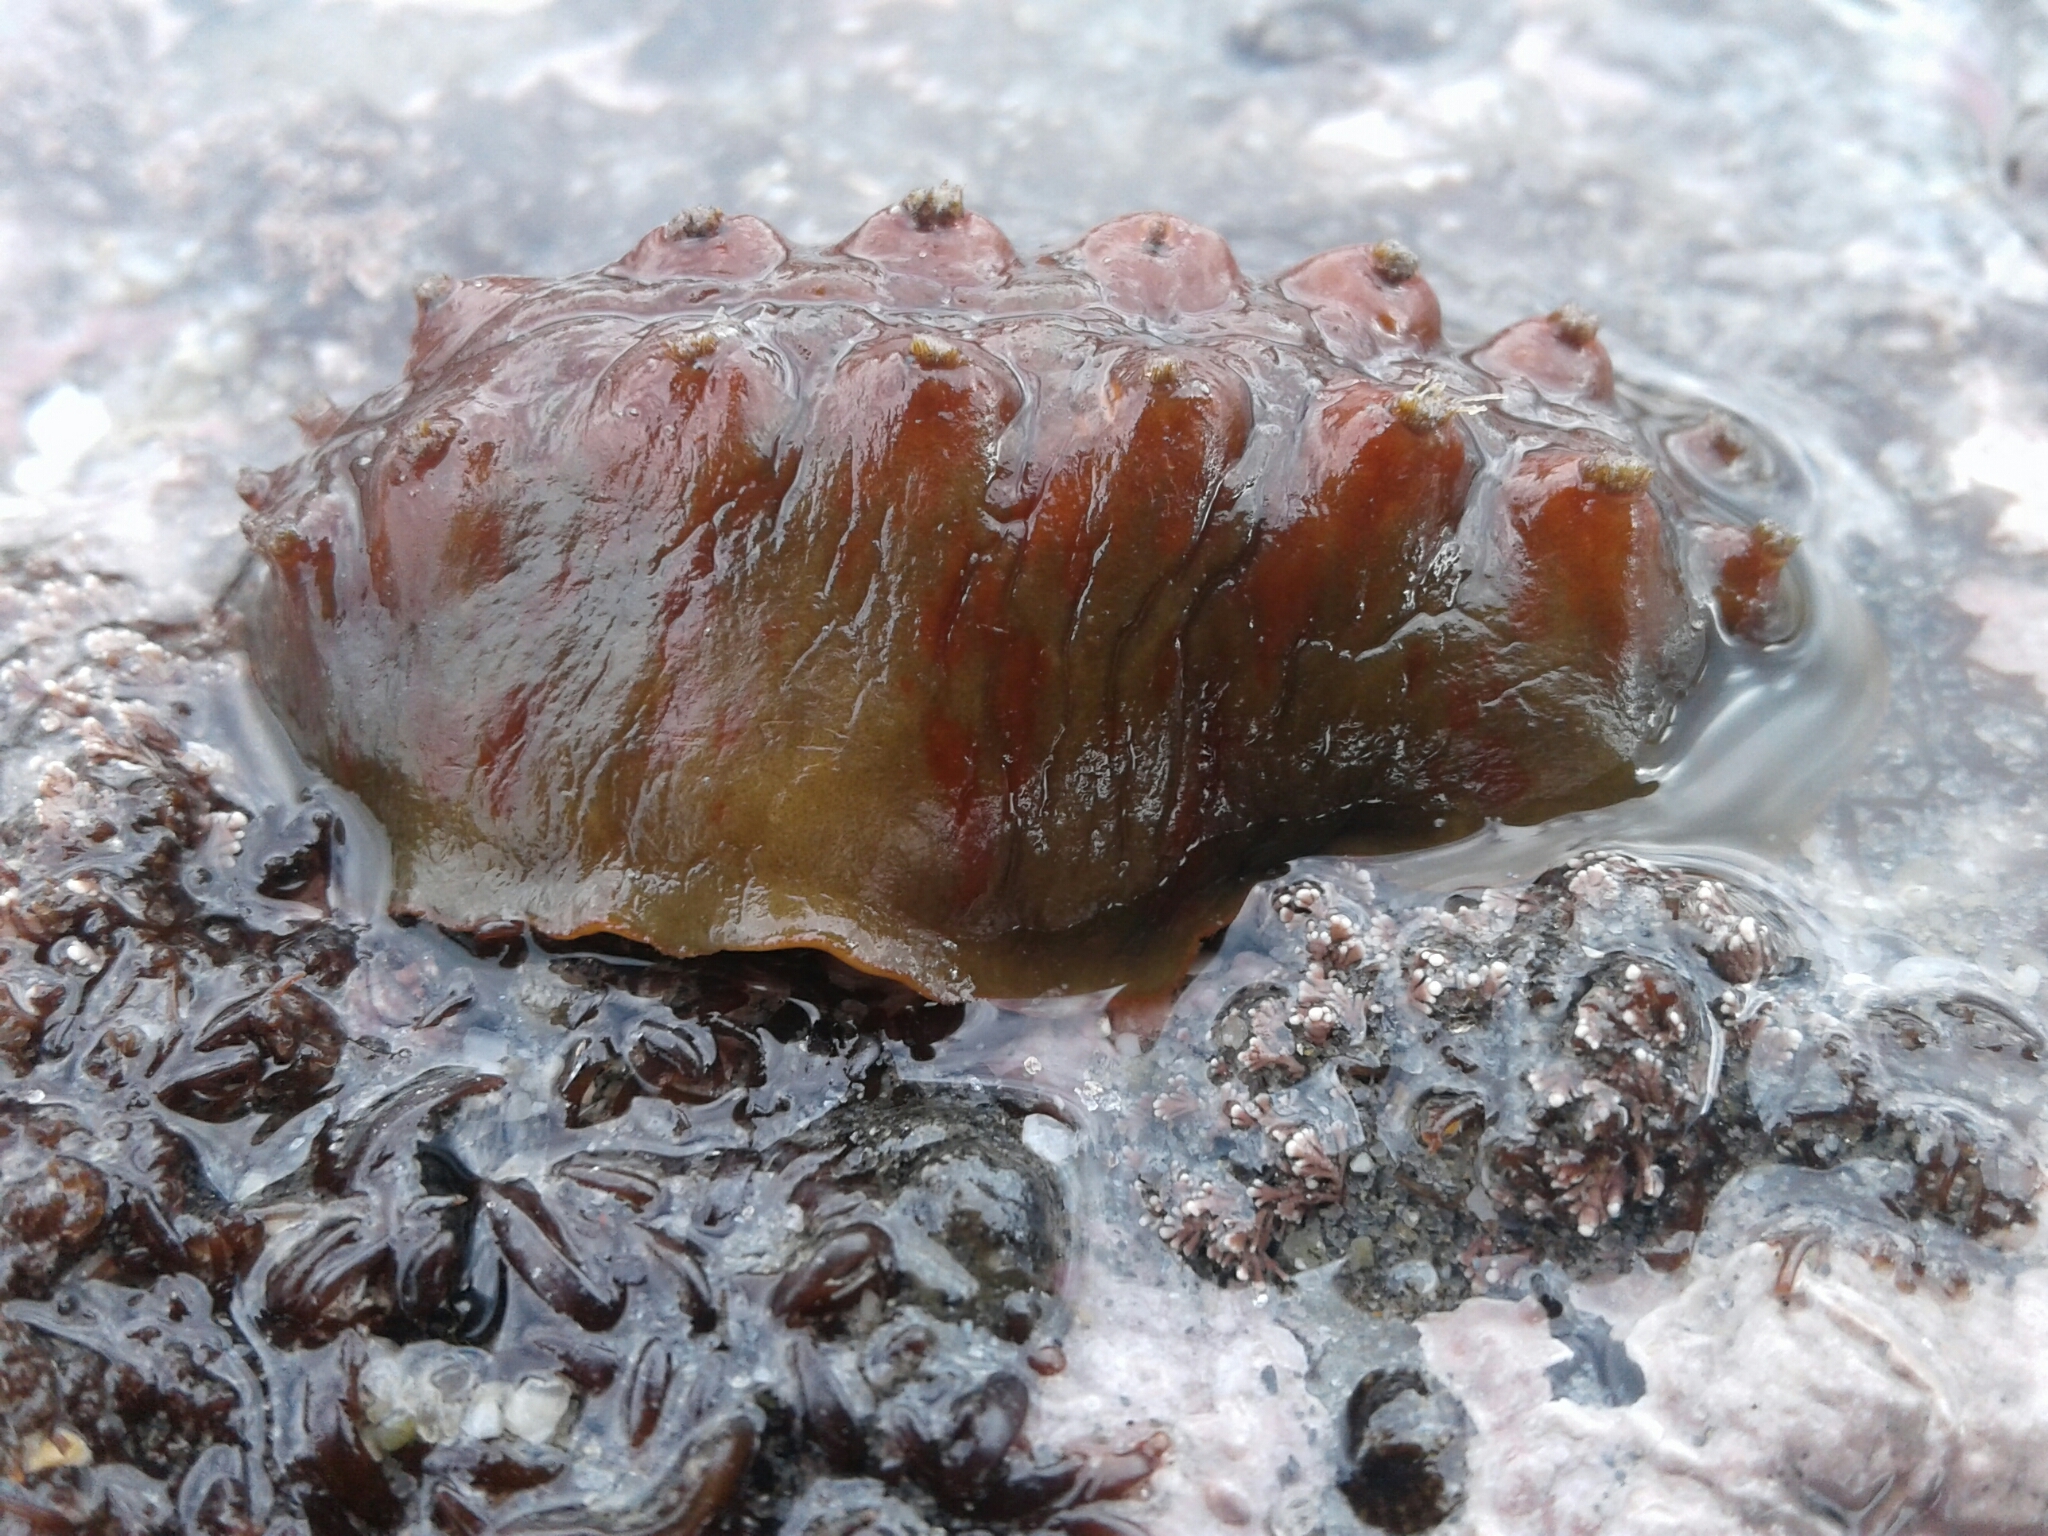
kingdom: Animalia
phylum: Mollusca
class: Polyplacophora
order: Chitonida
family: Acanthochitonidae
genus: Cryptoconchus
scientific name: Cryptoconchus porosus
